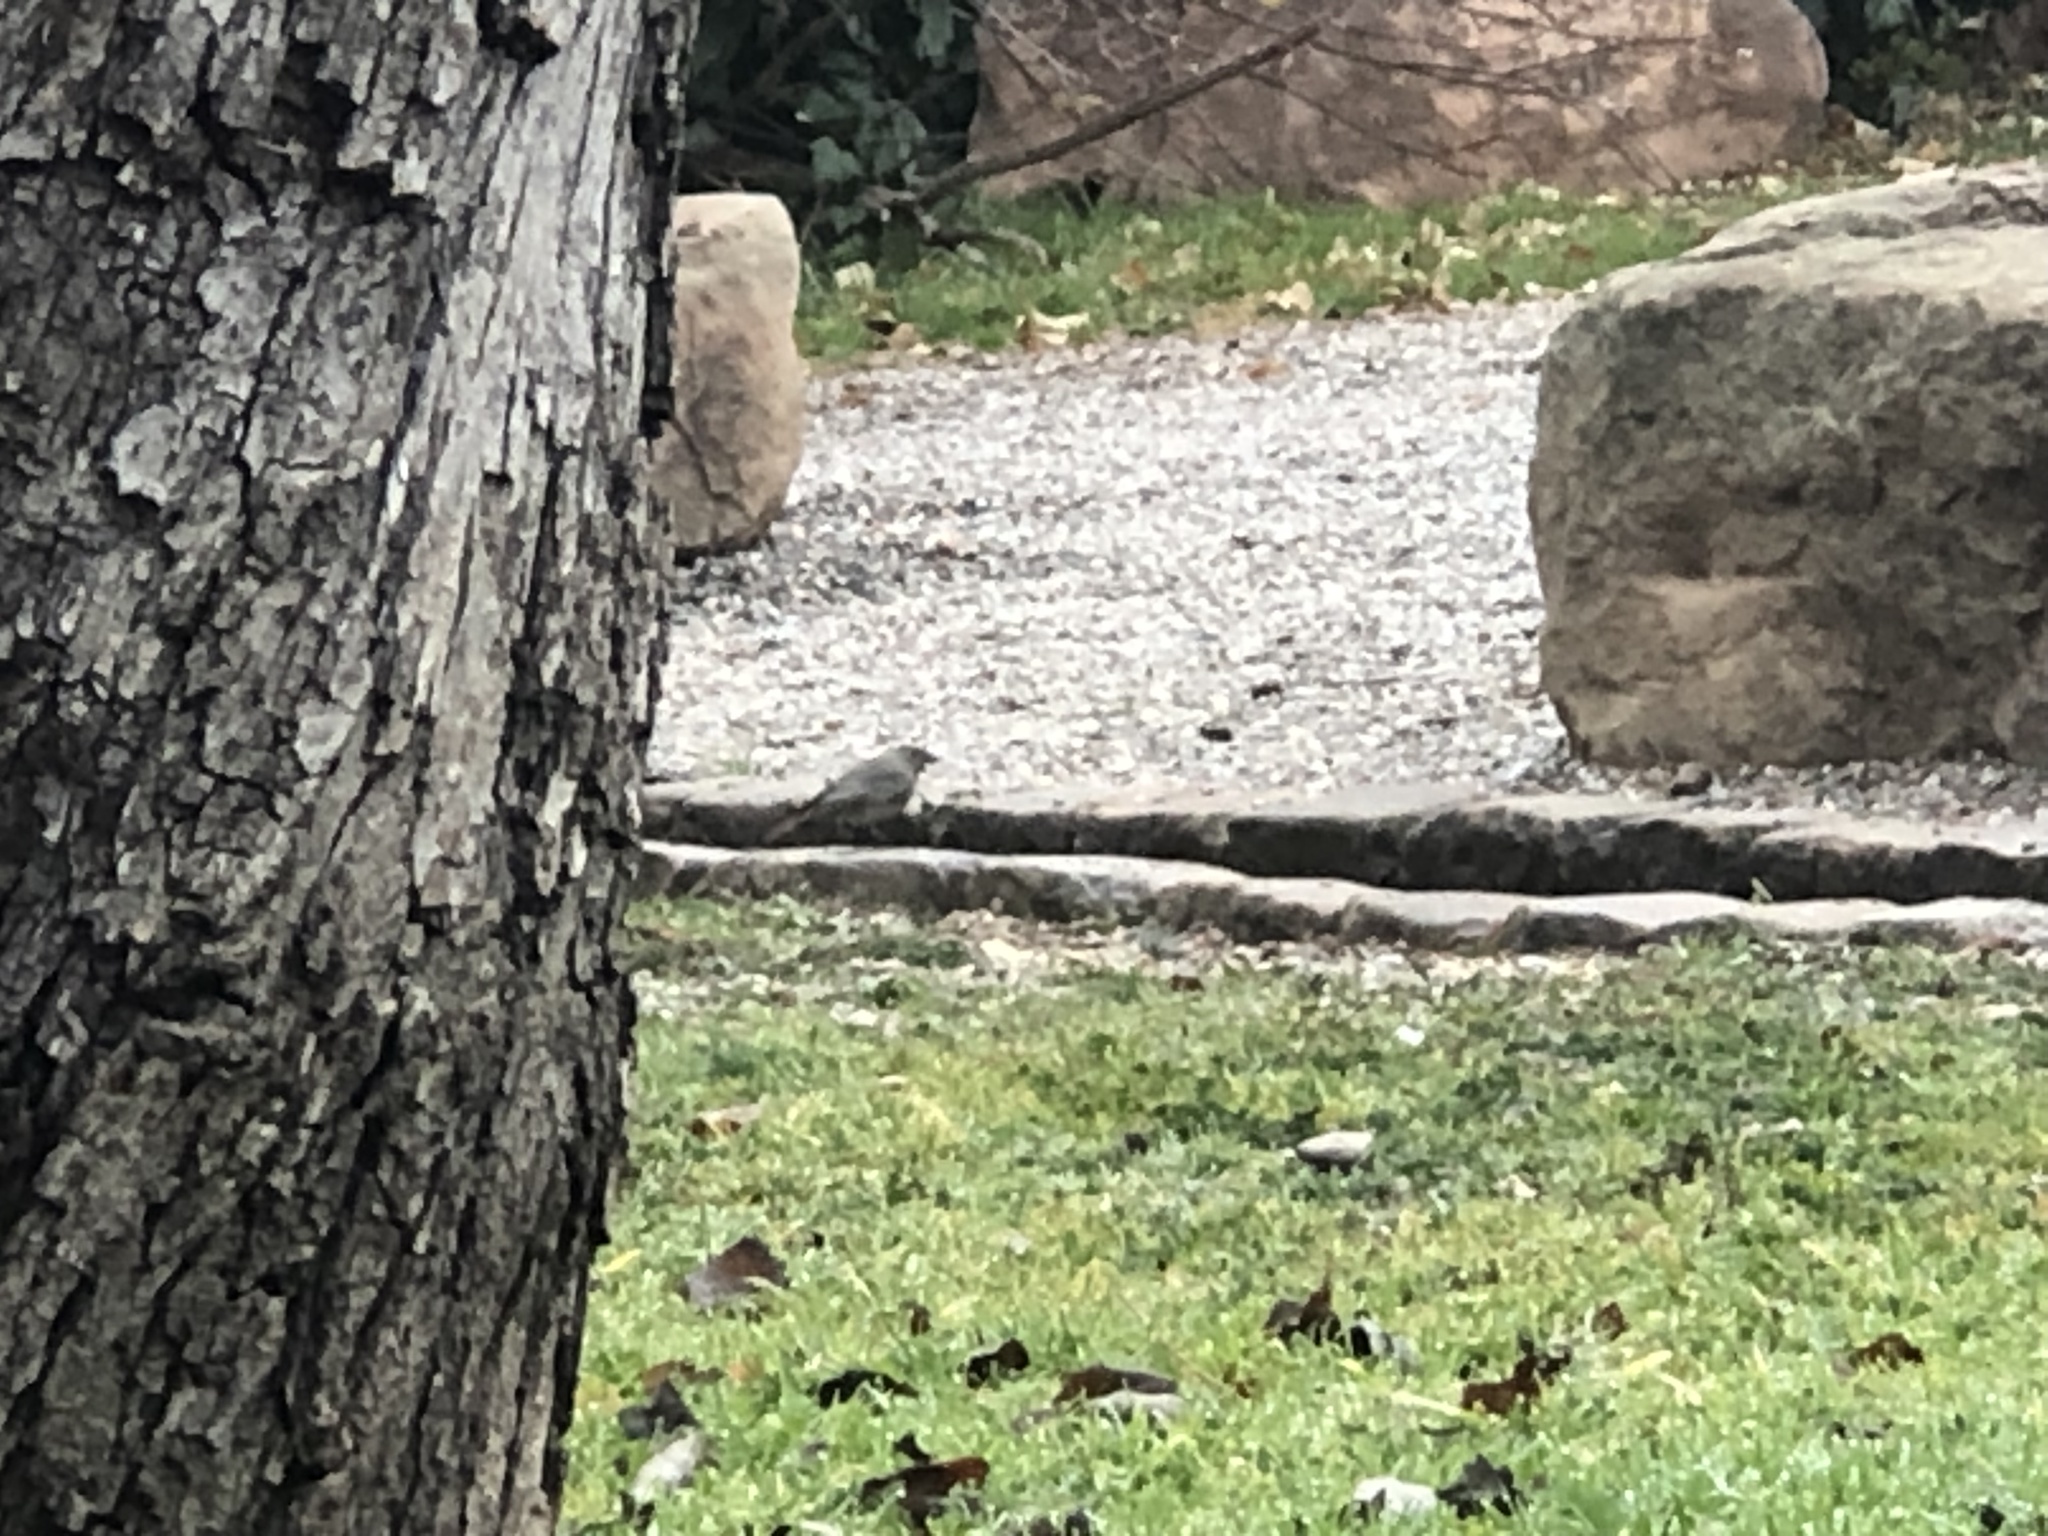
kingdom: Animalia
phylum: Chordata
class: Aves
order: Passeriformes
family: Muscicapidae
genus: Phoenicurus
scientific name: Phoenicurus ochruros
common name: Black redstart
